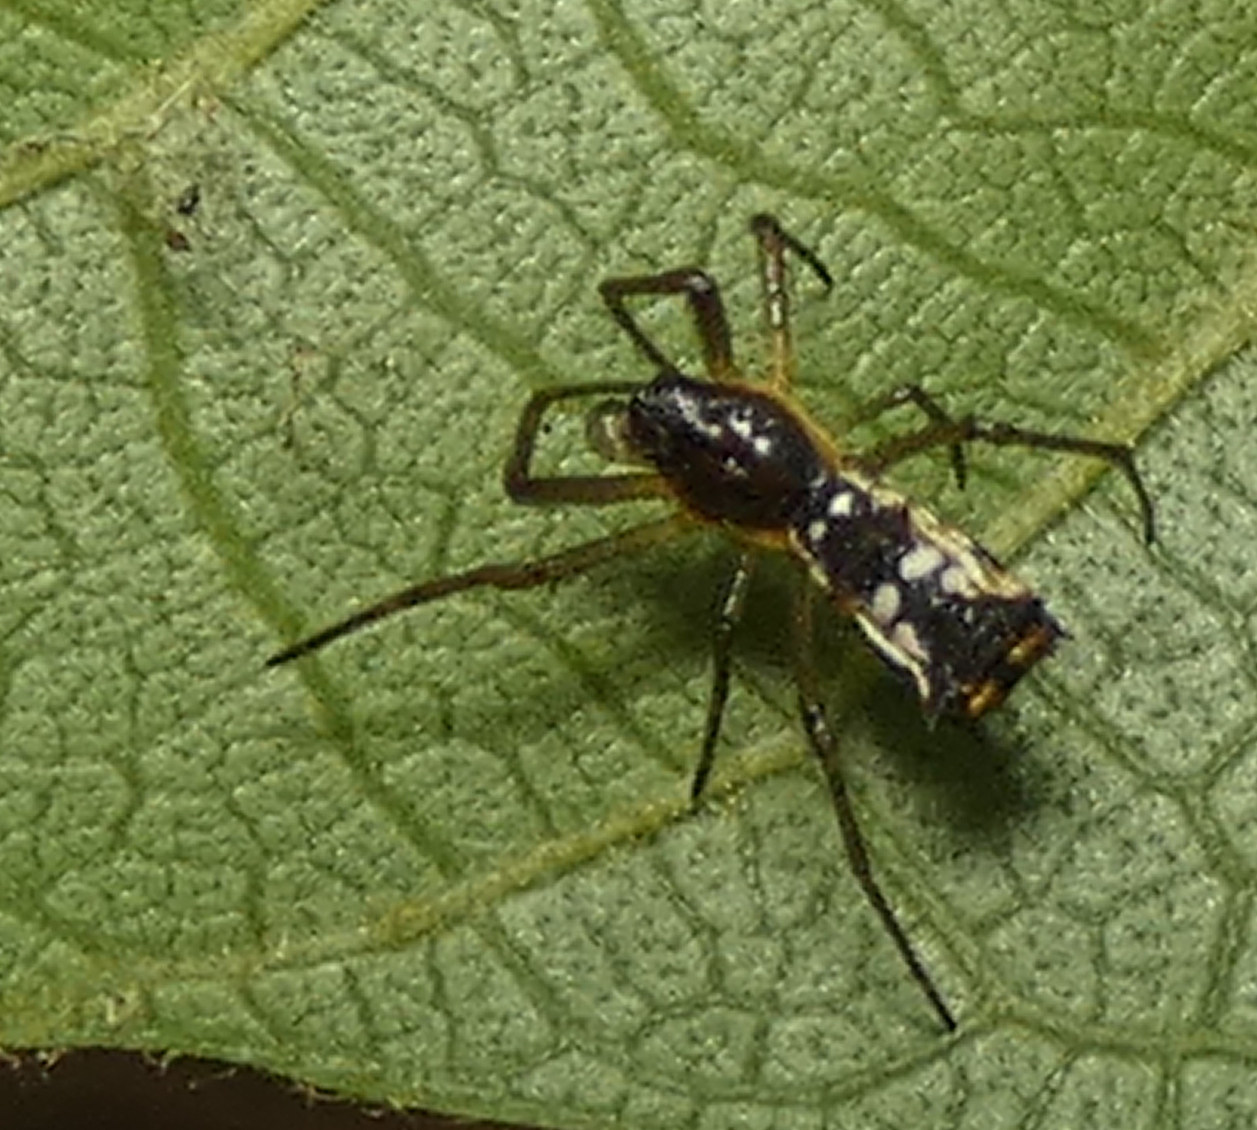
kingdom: Animalia
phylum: Arthropoda
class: Arachnida
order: Araneae
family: Araneidae
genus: Micrathena
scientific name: Micrathena fissispina
